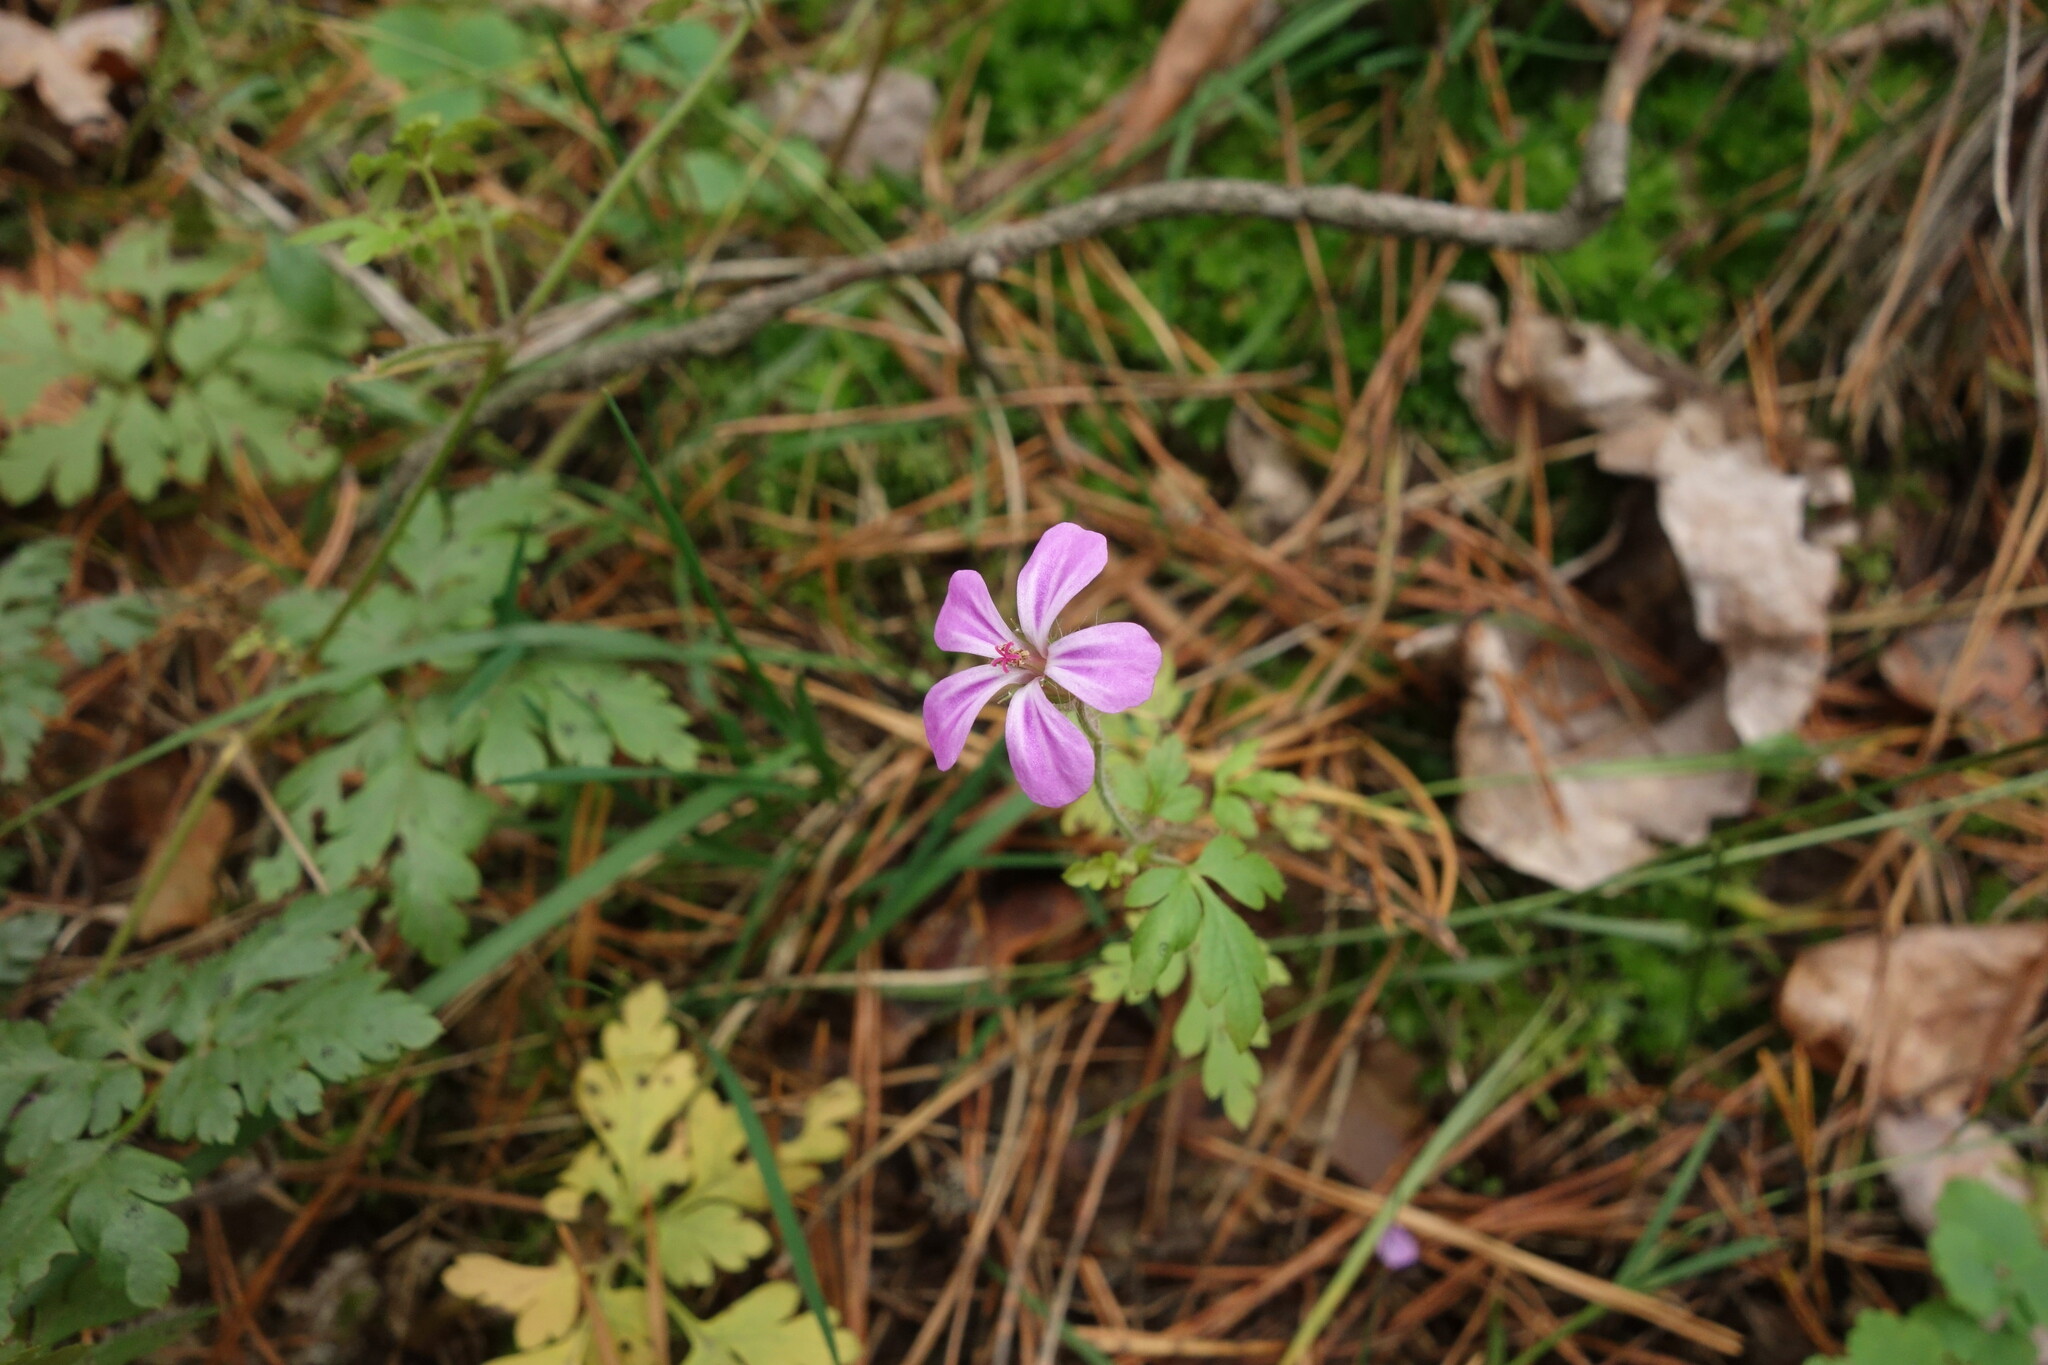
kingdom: Plantae
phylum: Tracheophyta
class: Magnoliopsida
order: Geraniales
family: Geraniaceae
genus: Geranium
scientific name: Geranium robertianum
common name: Herb-robert
